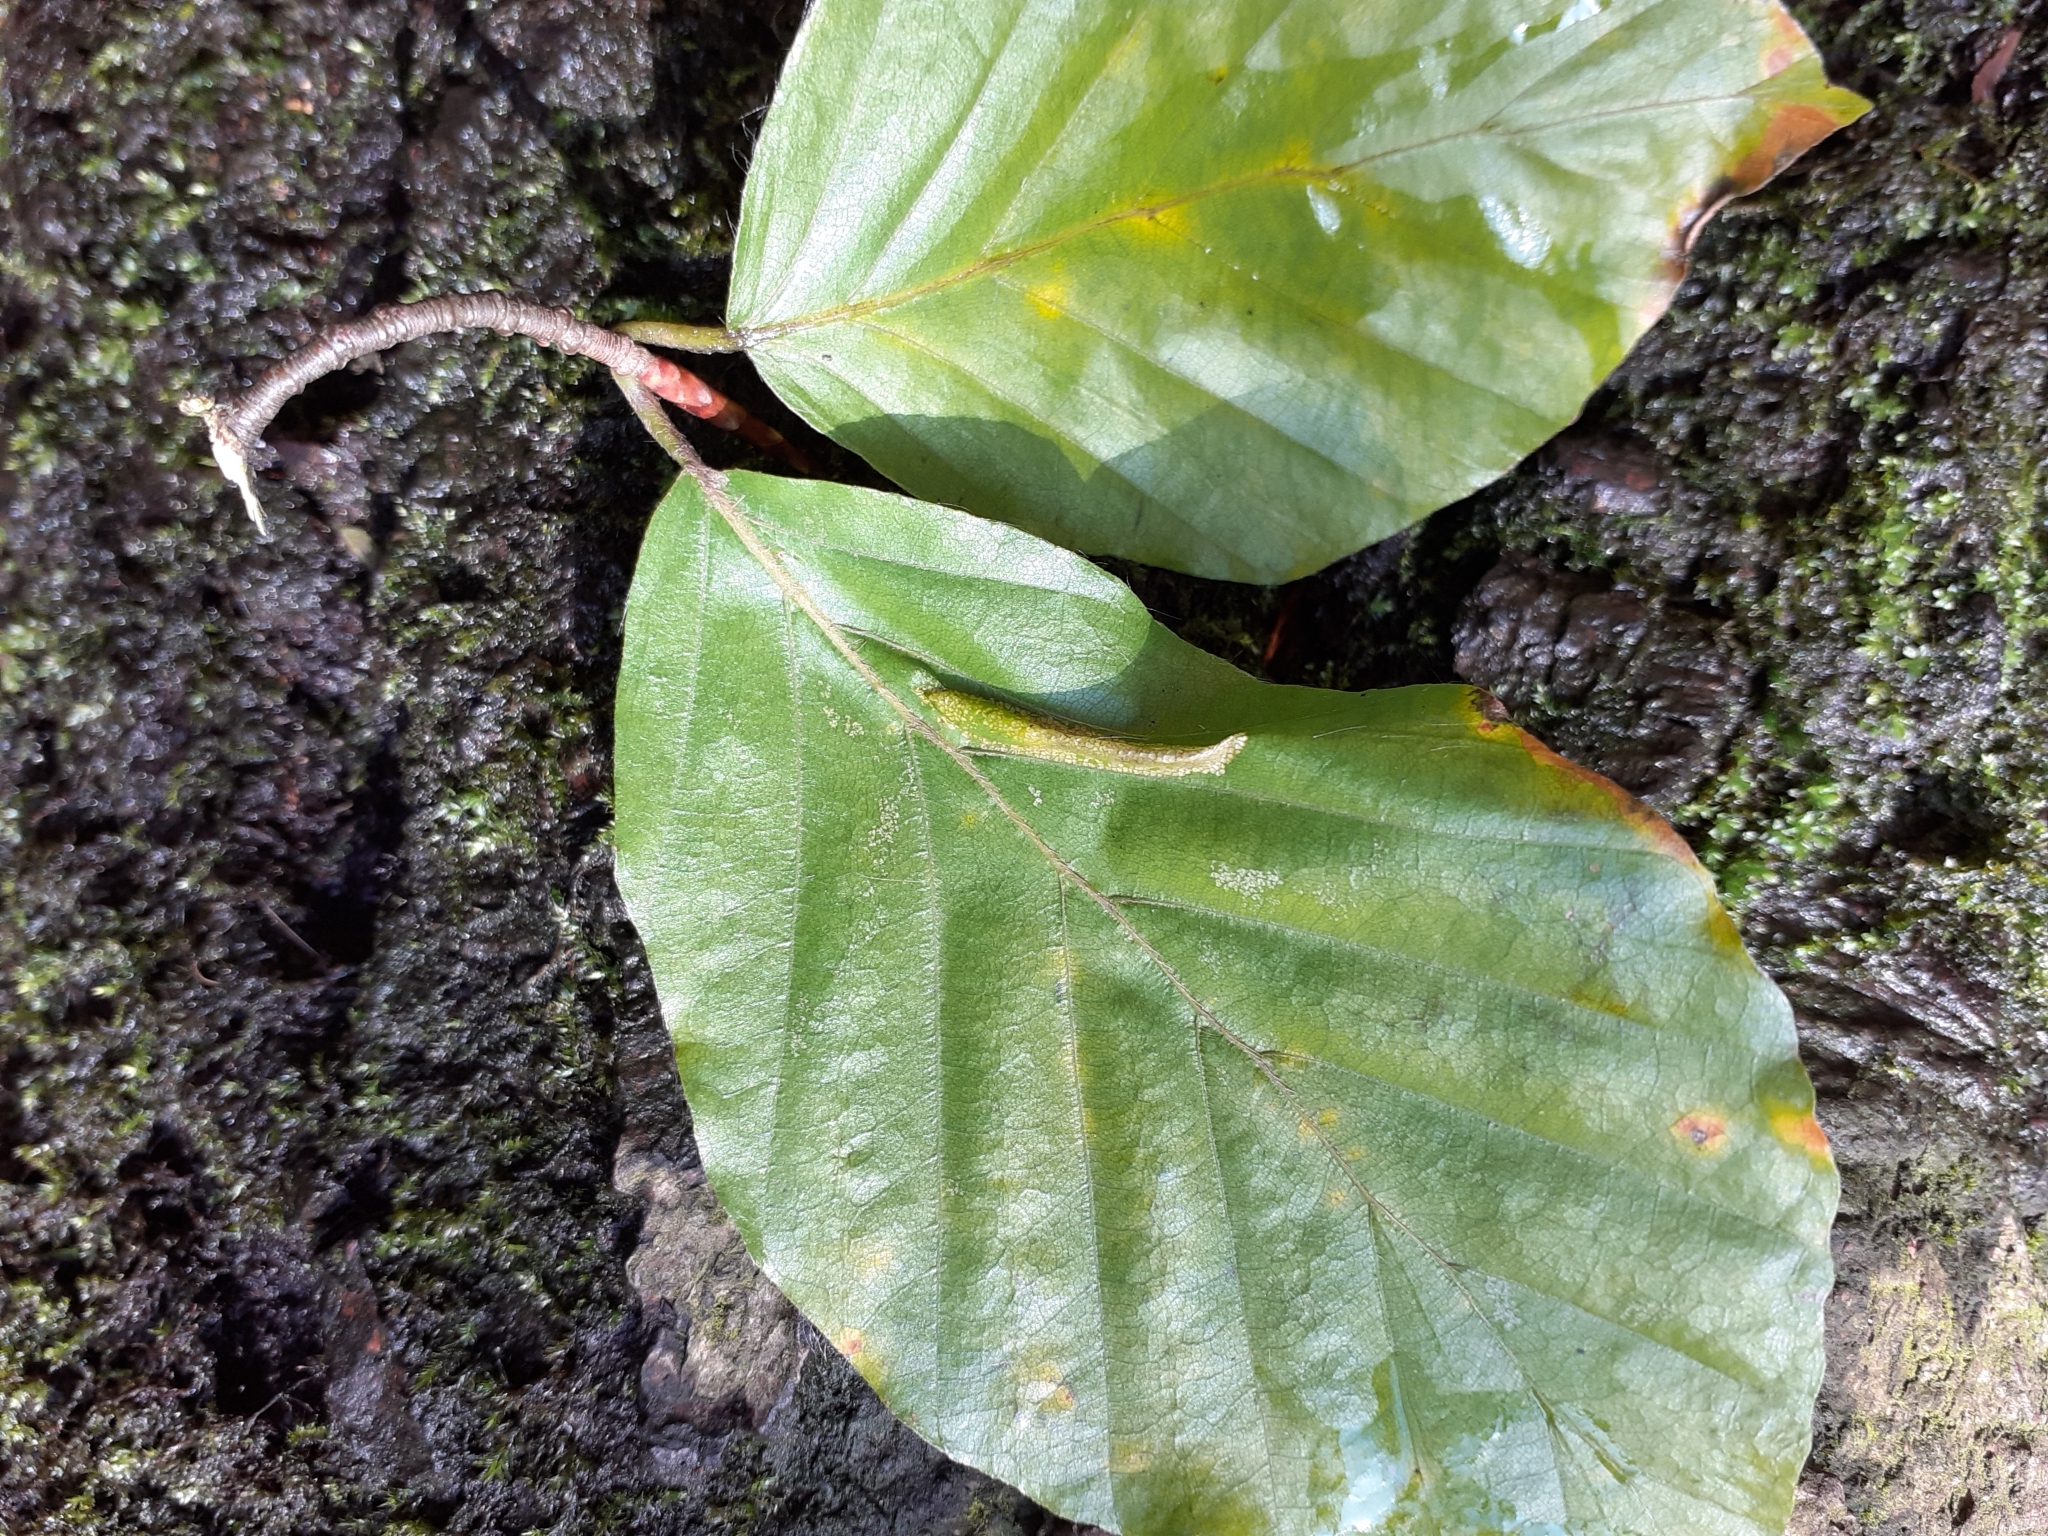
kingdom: Animalia
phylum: Arthropoda
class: Insecta
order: Lepidoptera
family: Gracillariidae
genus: Phyllonorycter
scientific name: Phyllonorycter maestingella
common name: Beech midget
